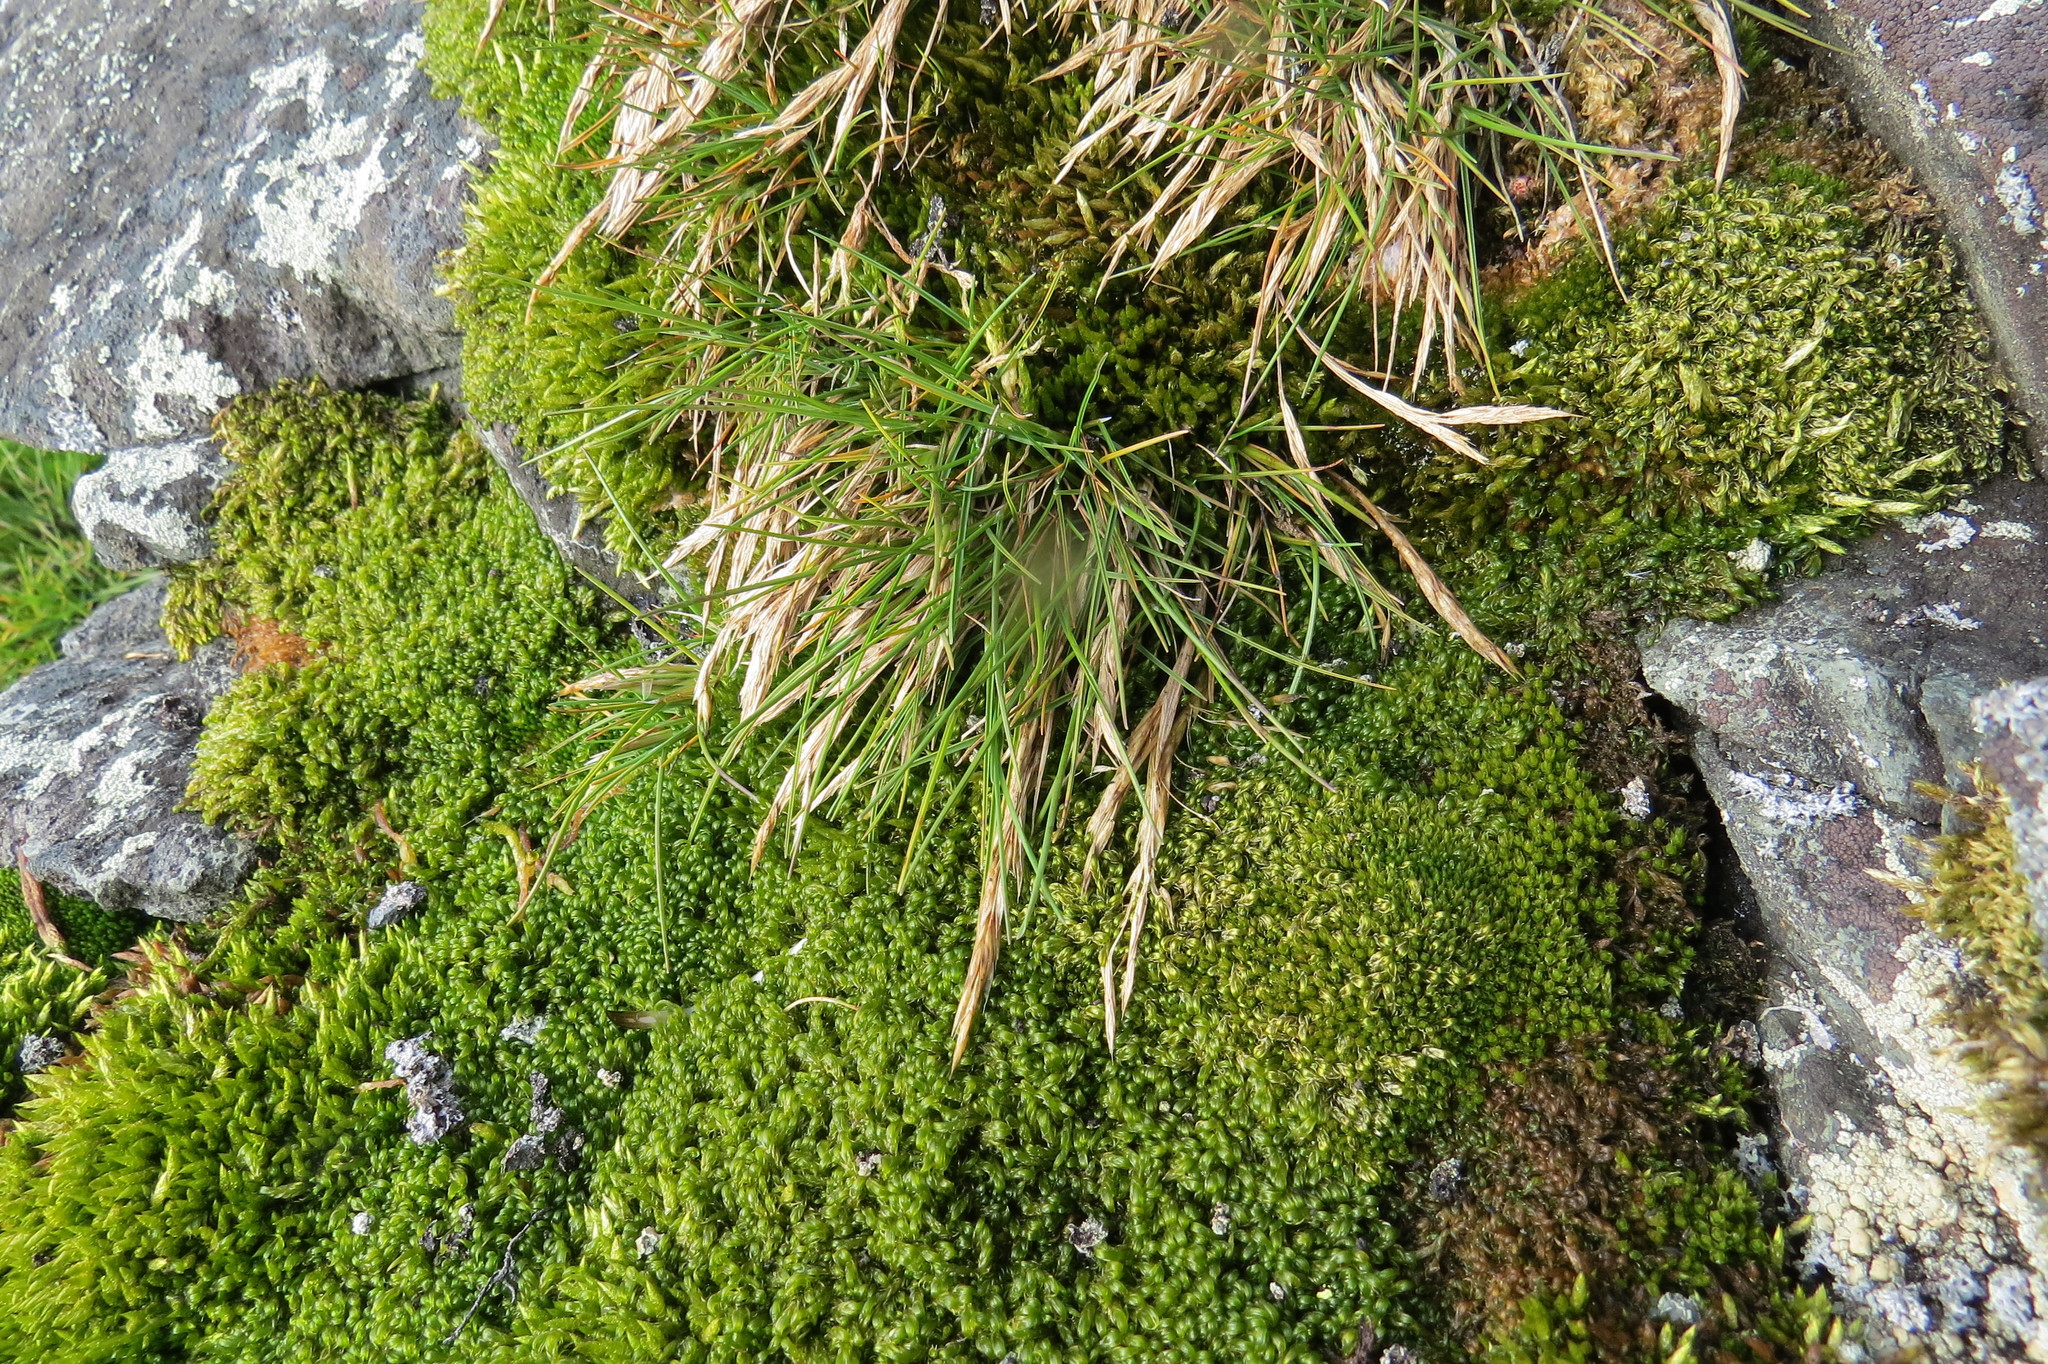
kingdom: Plantae
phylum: Tracheophyta
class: Liliopsida
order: Poales
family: Poaceae
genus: Deschampsia
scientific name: Deschampsia antarctica
